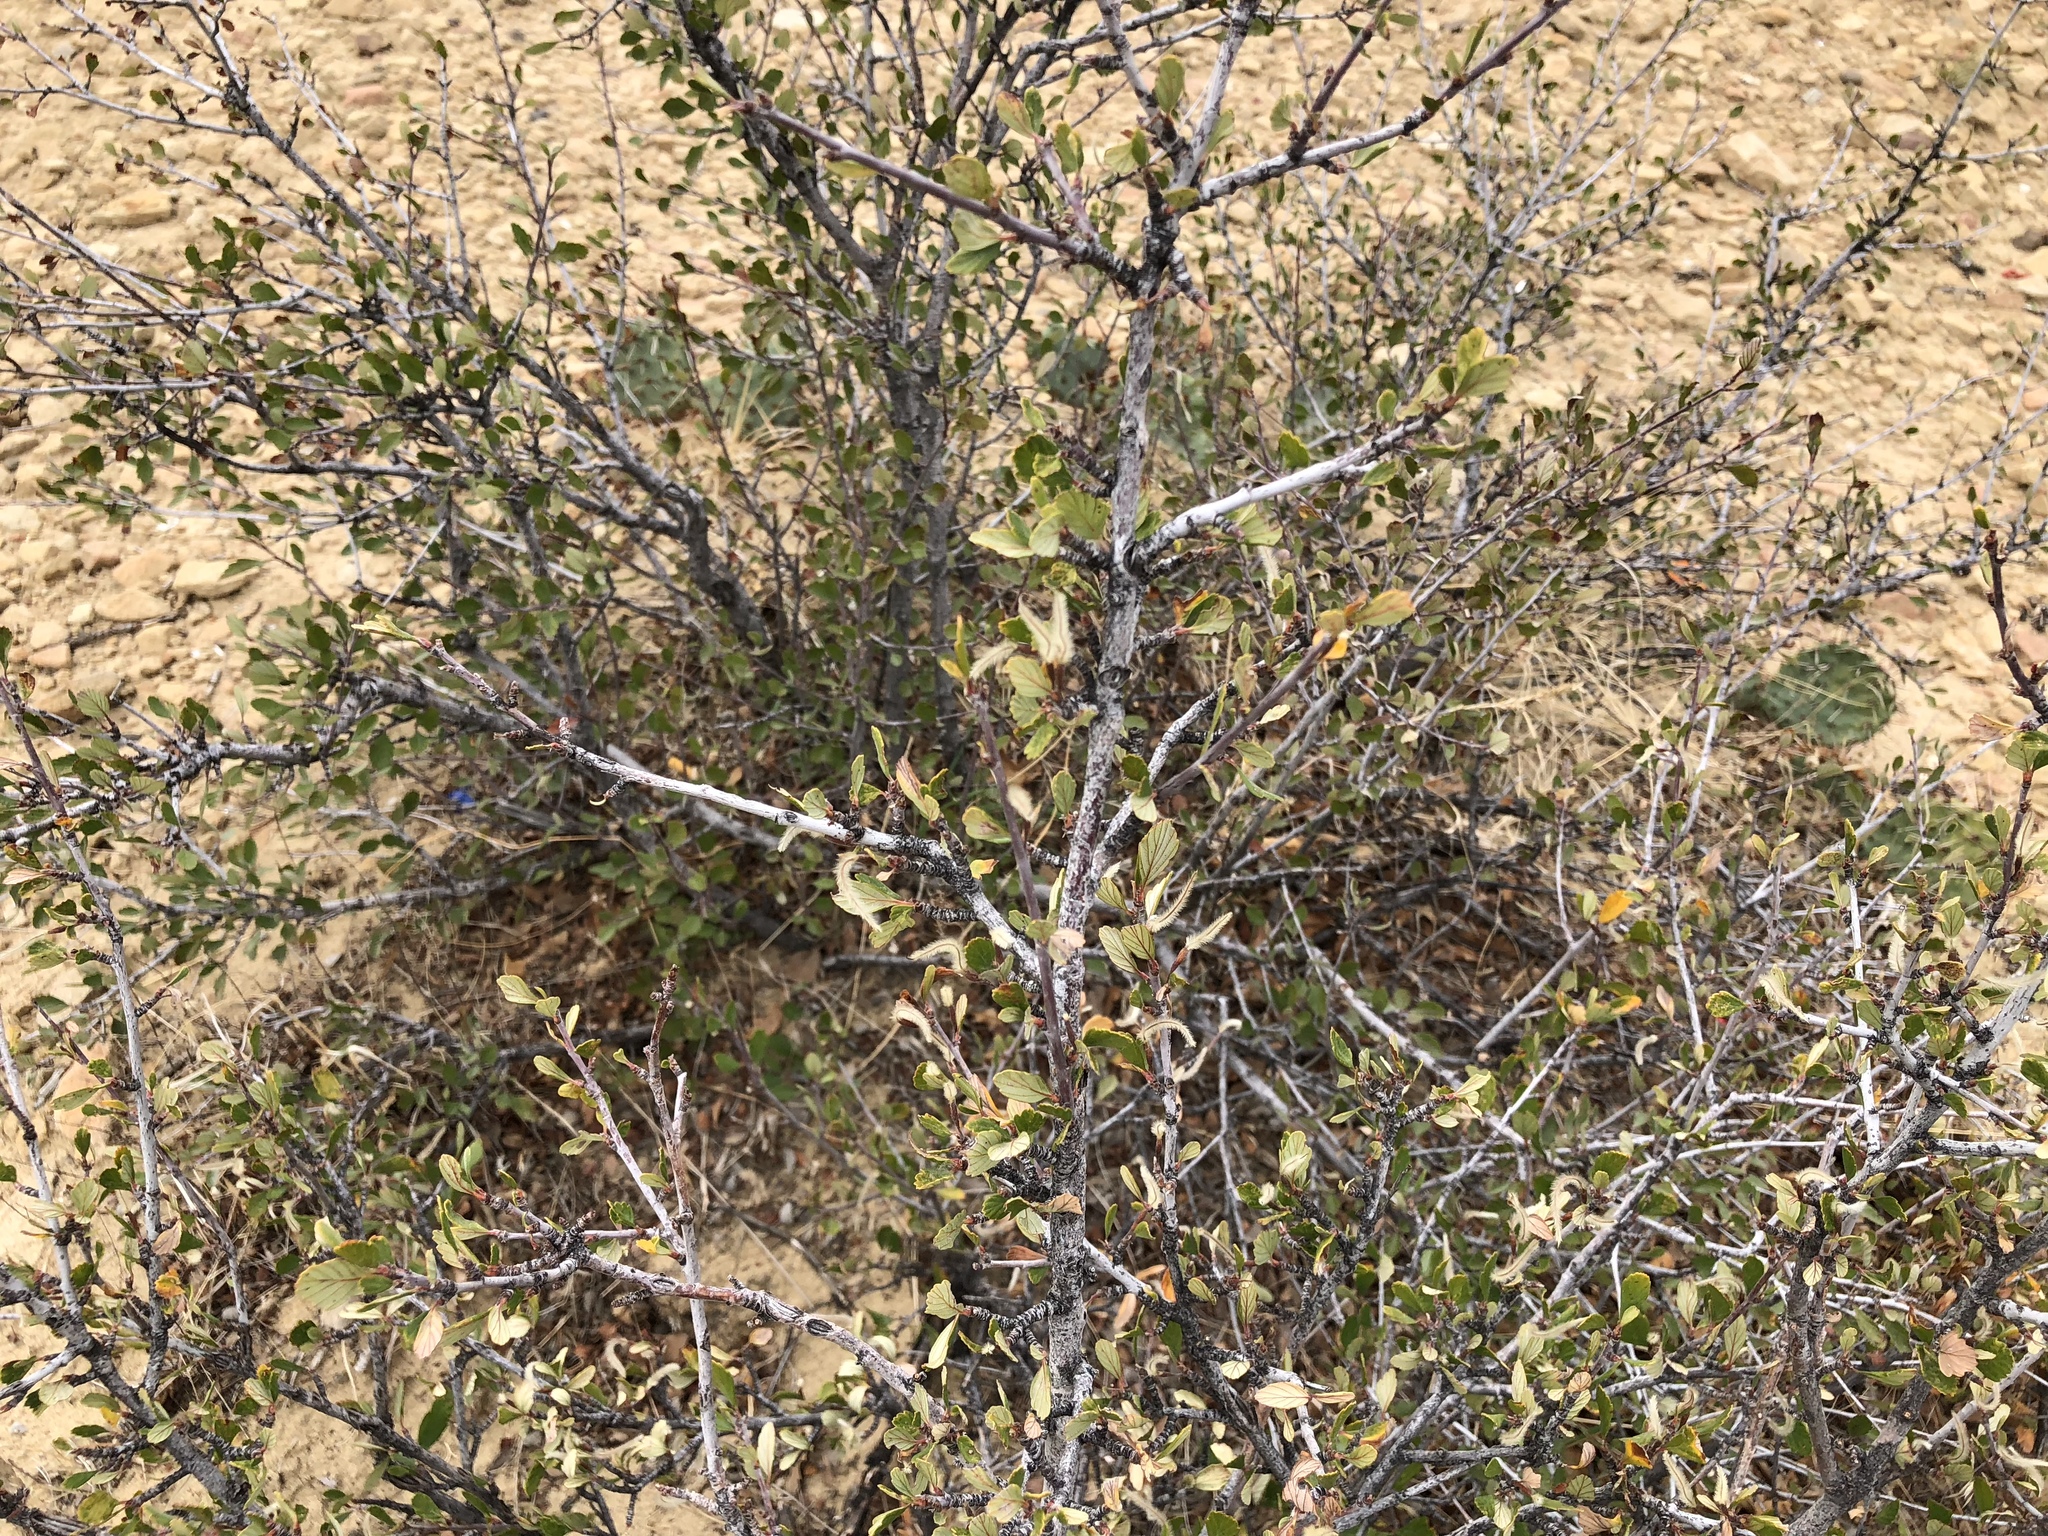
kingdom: Plantae
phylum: Tracheophyta
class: Magnoliopsida
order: Rosales
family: Rosaceae
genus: Cercocarpus
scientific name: Cercocarpus montanus
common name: Alder-leaf cercocarpus
